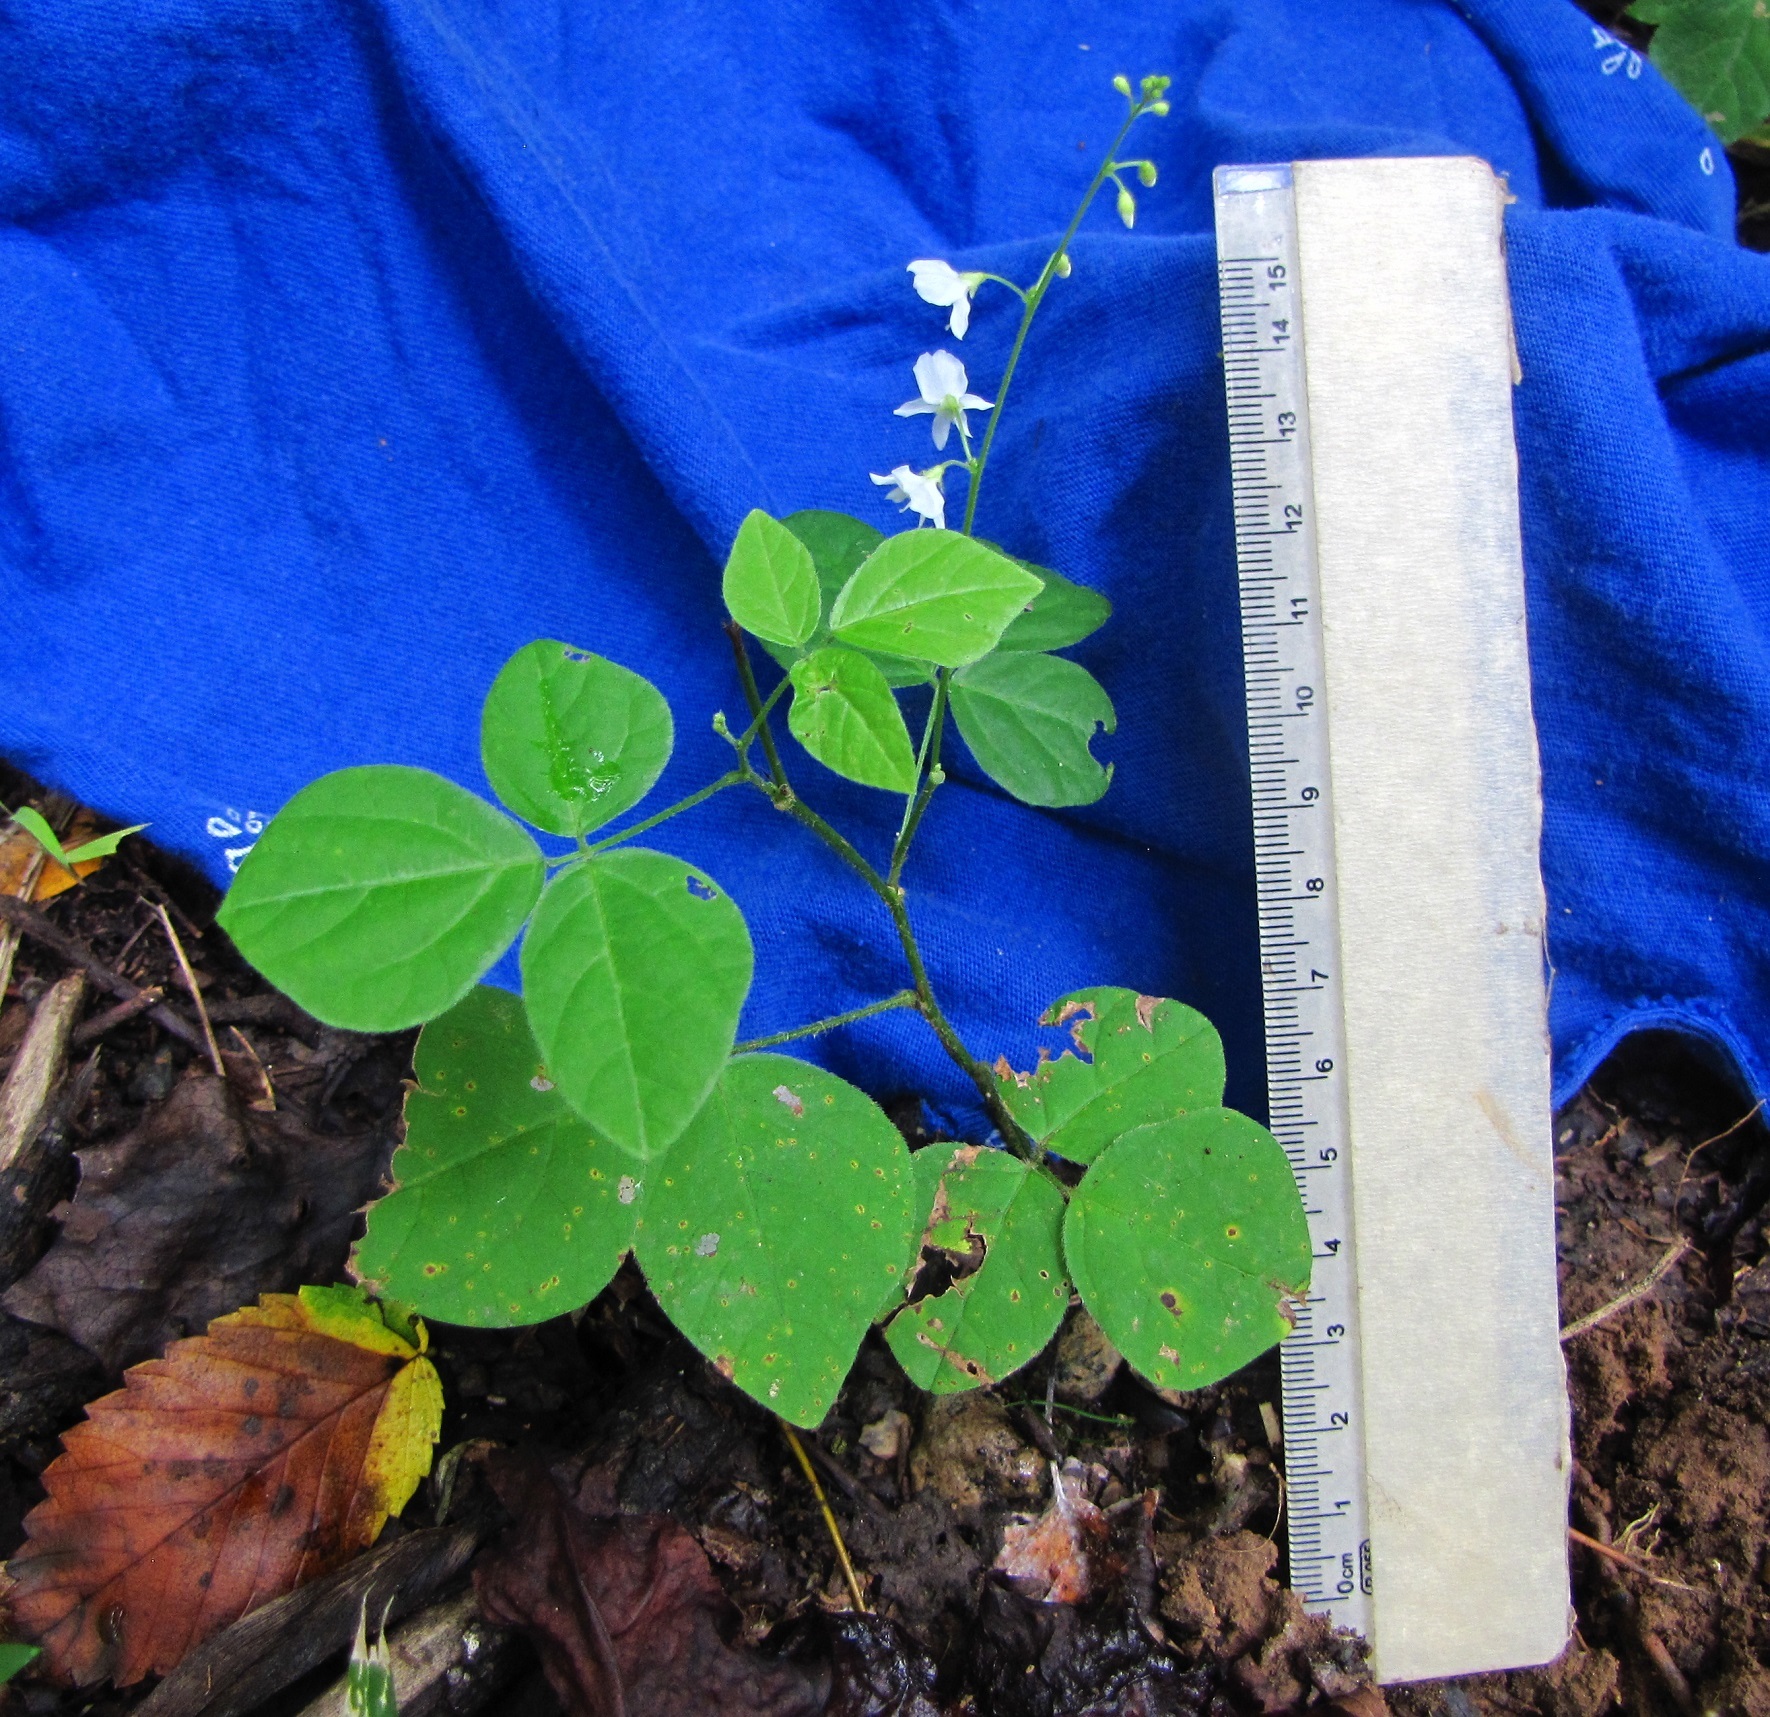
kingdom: Plantae
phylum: Tracheophyta
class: Magnoliopsida
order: Fabales
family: Fabaceae
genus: Hylodesmum
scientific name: Hylodesmum pauciflorum
